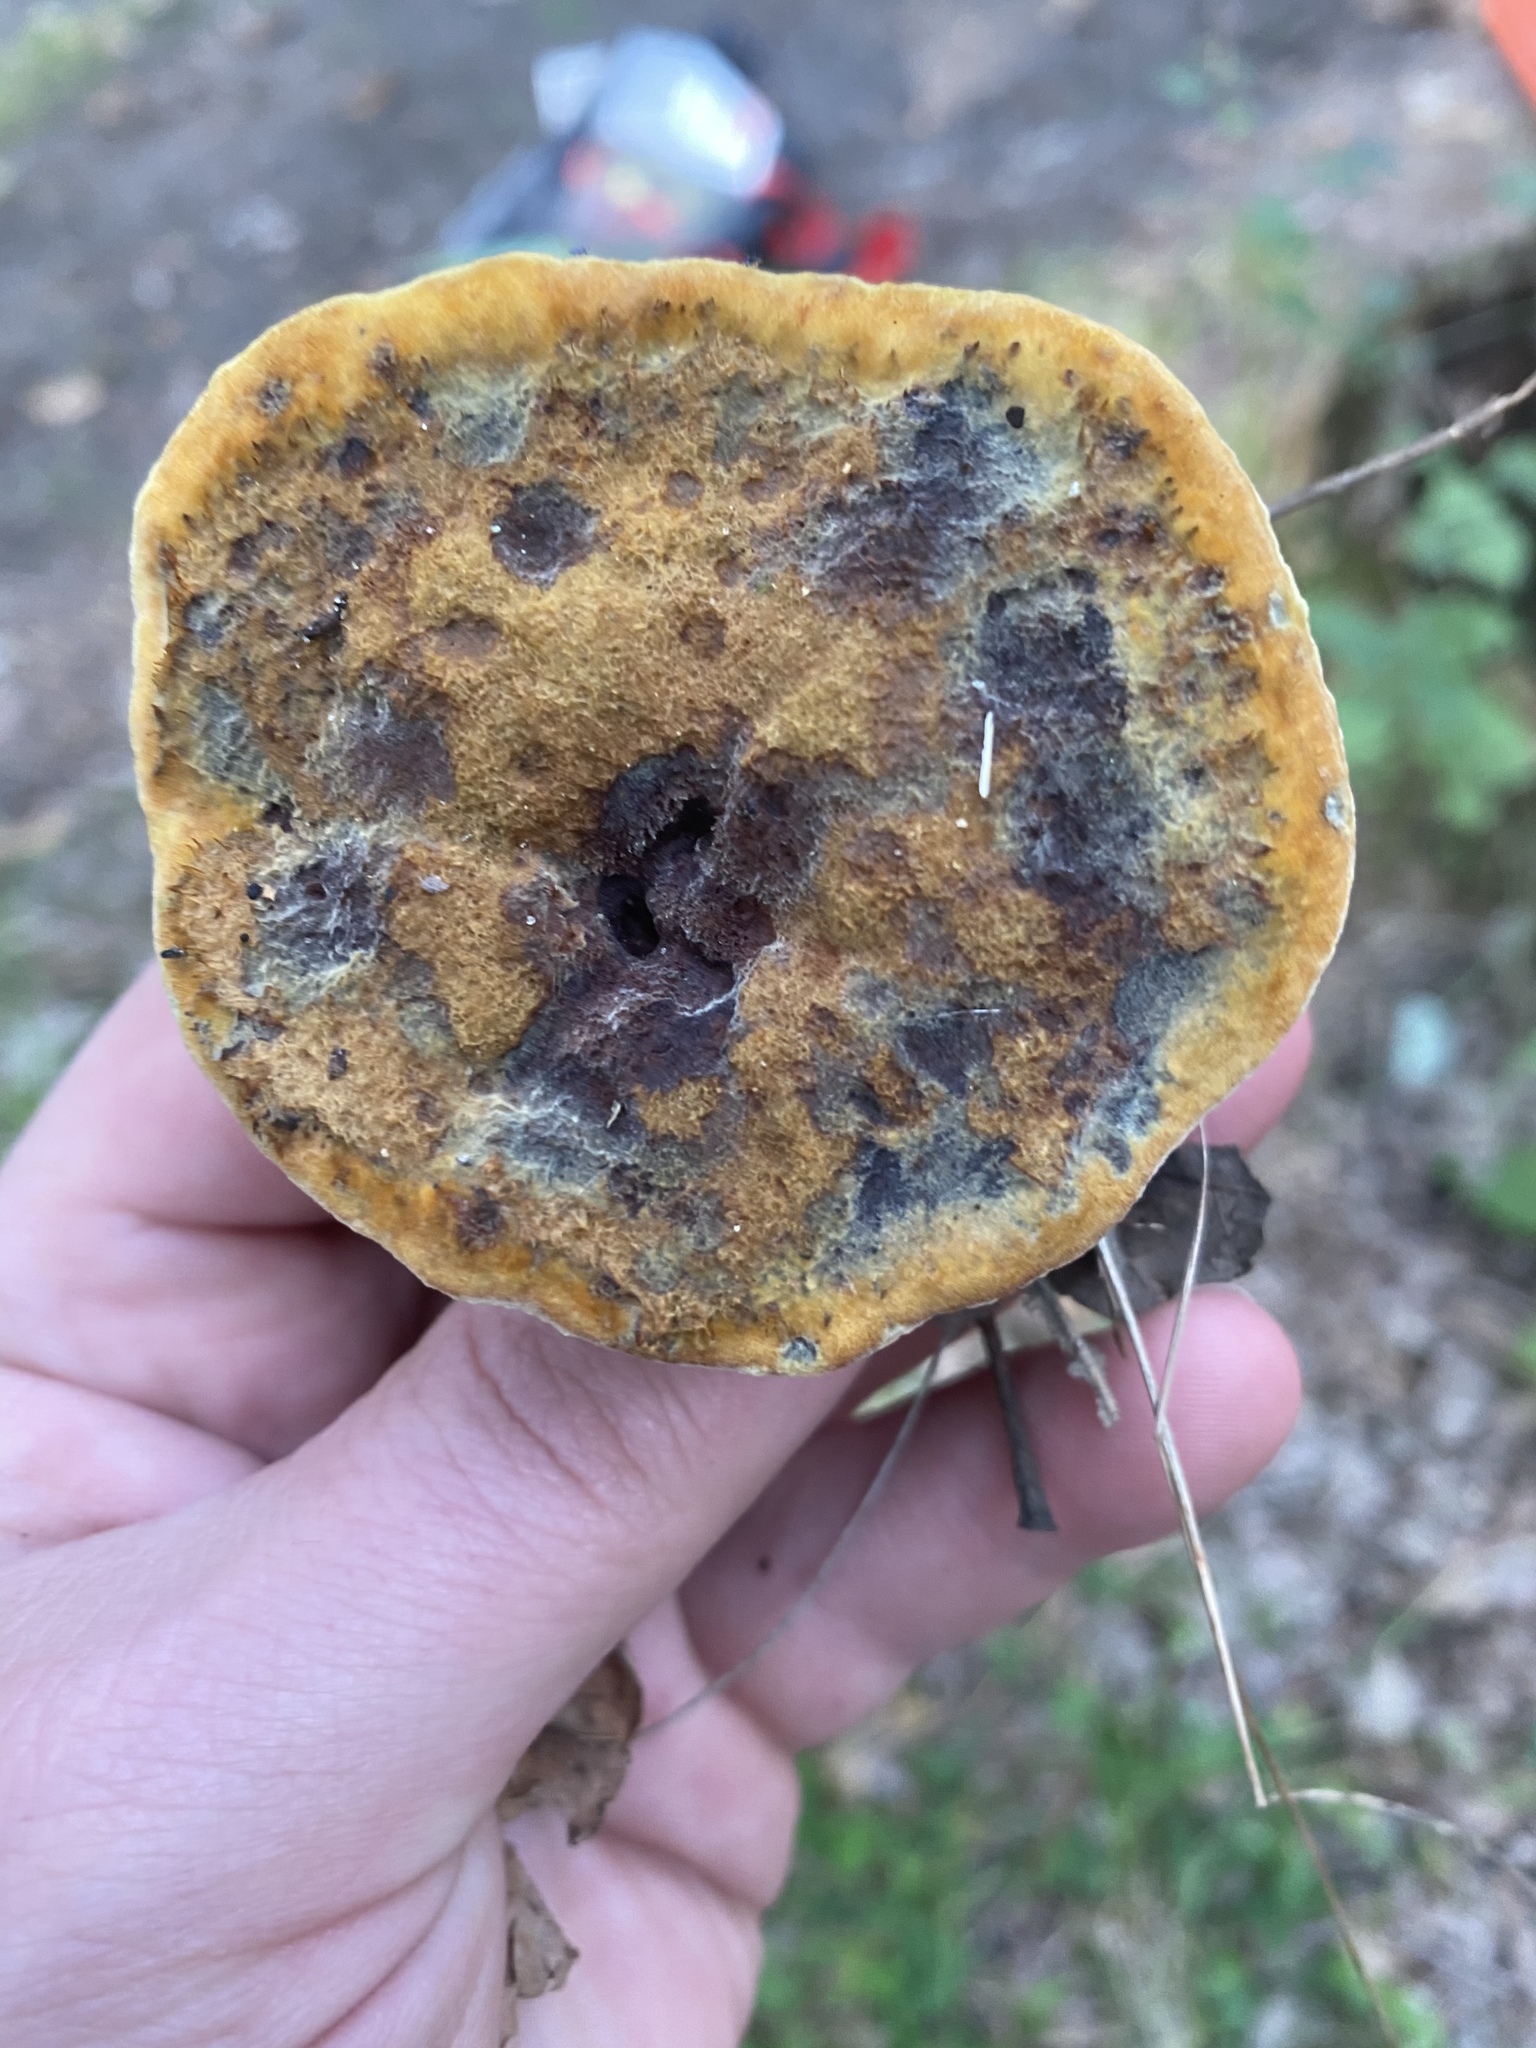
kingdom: Fungi
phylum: Basidiomycota
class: Agaricomycetes
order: Polyporales
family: Laetiporaceae
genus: Phaeolus
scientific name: Phaeolus schweinitzii
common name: Dyer's mazegill
